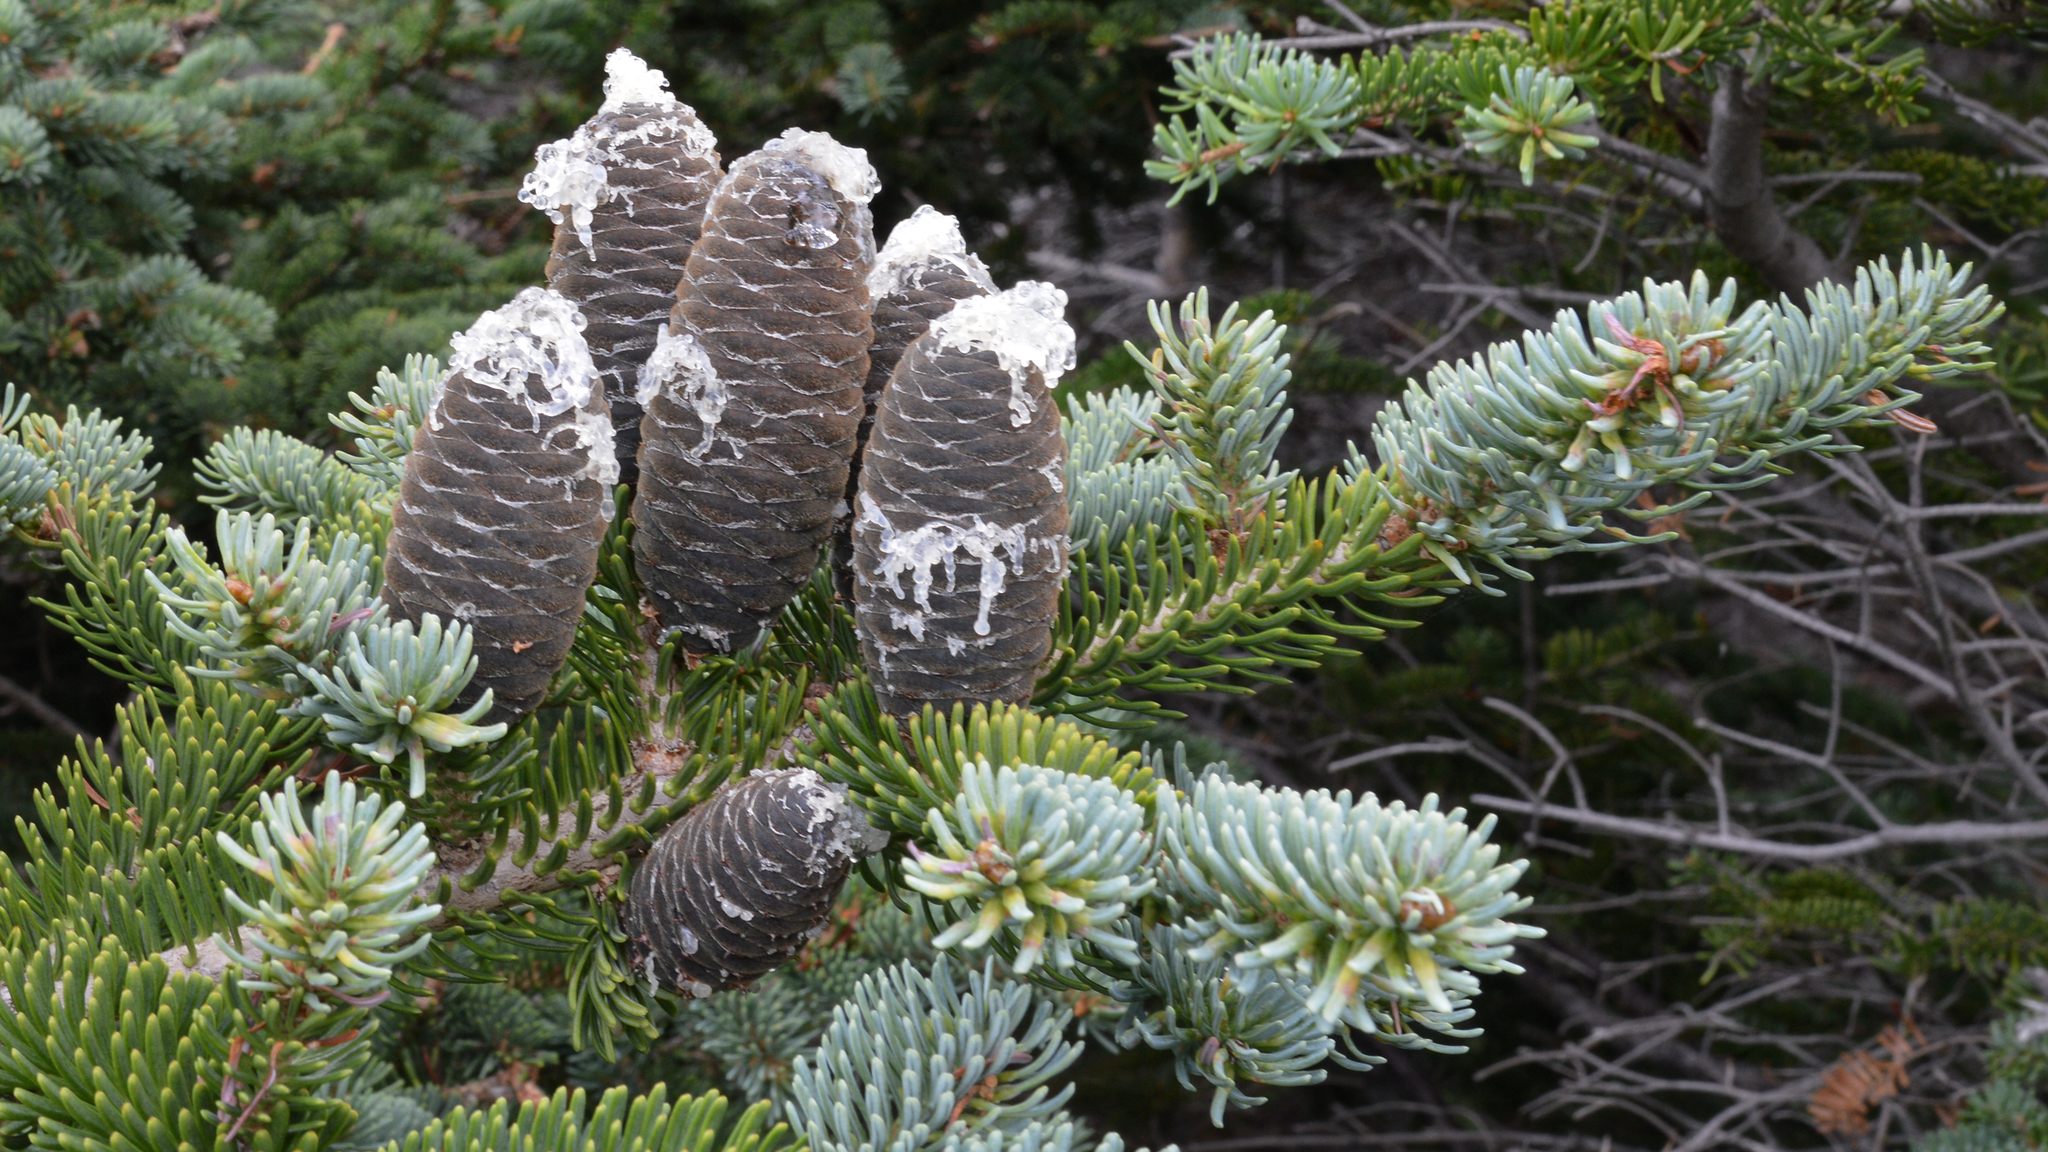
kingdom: Plantae
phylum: Tracheophyta
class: Pinopsida
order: Pinales
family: Pinaceae
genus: Abies
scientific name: Abies balsamea
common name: Balsam fir
